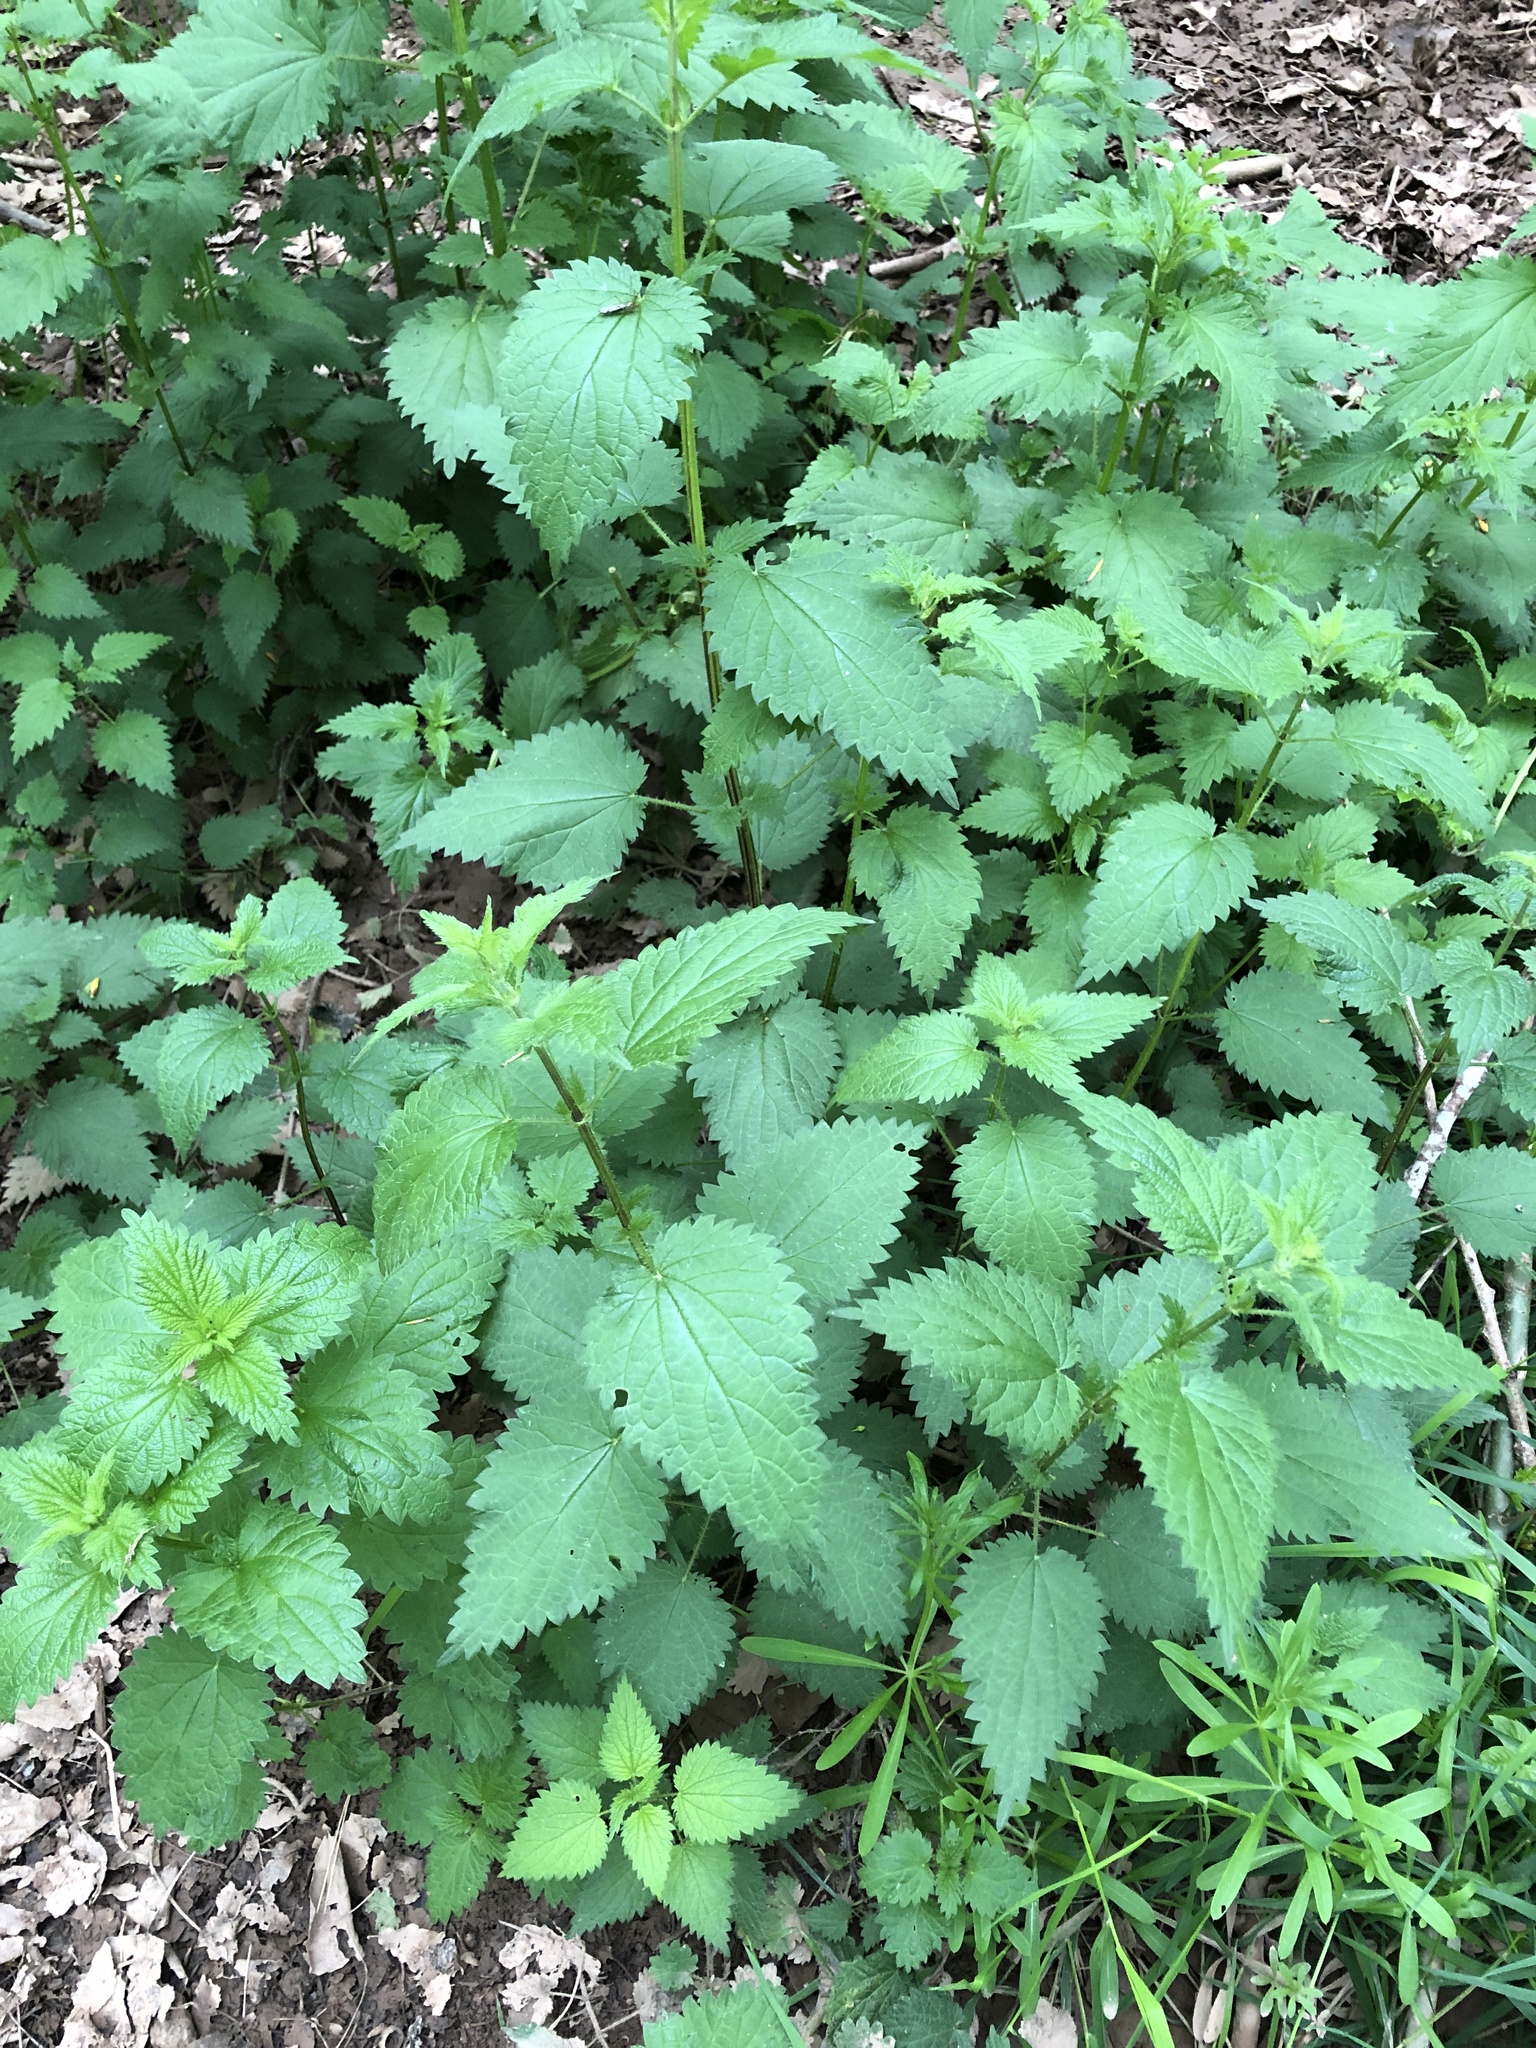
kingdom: Plantae
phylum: Tracheophyta
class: Magnoliopsida
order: Rosales
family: Urticaceae
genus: Urtica
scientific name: Urtica dioica
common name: Common nettle
